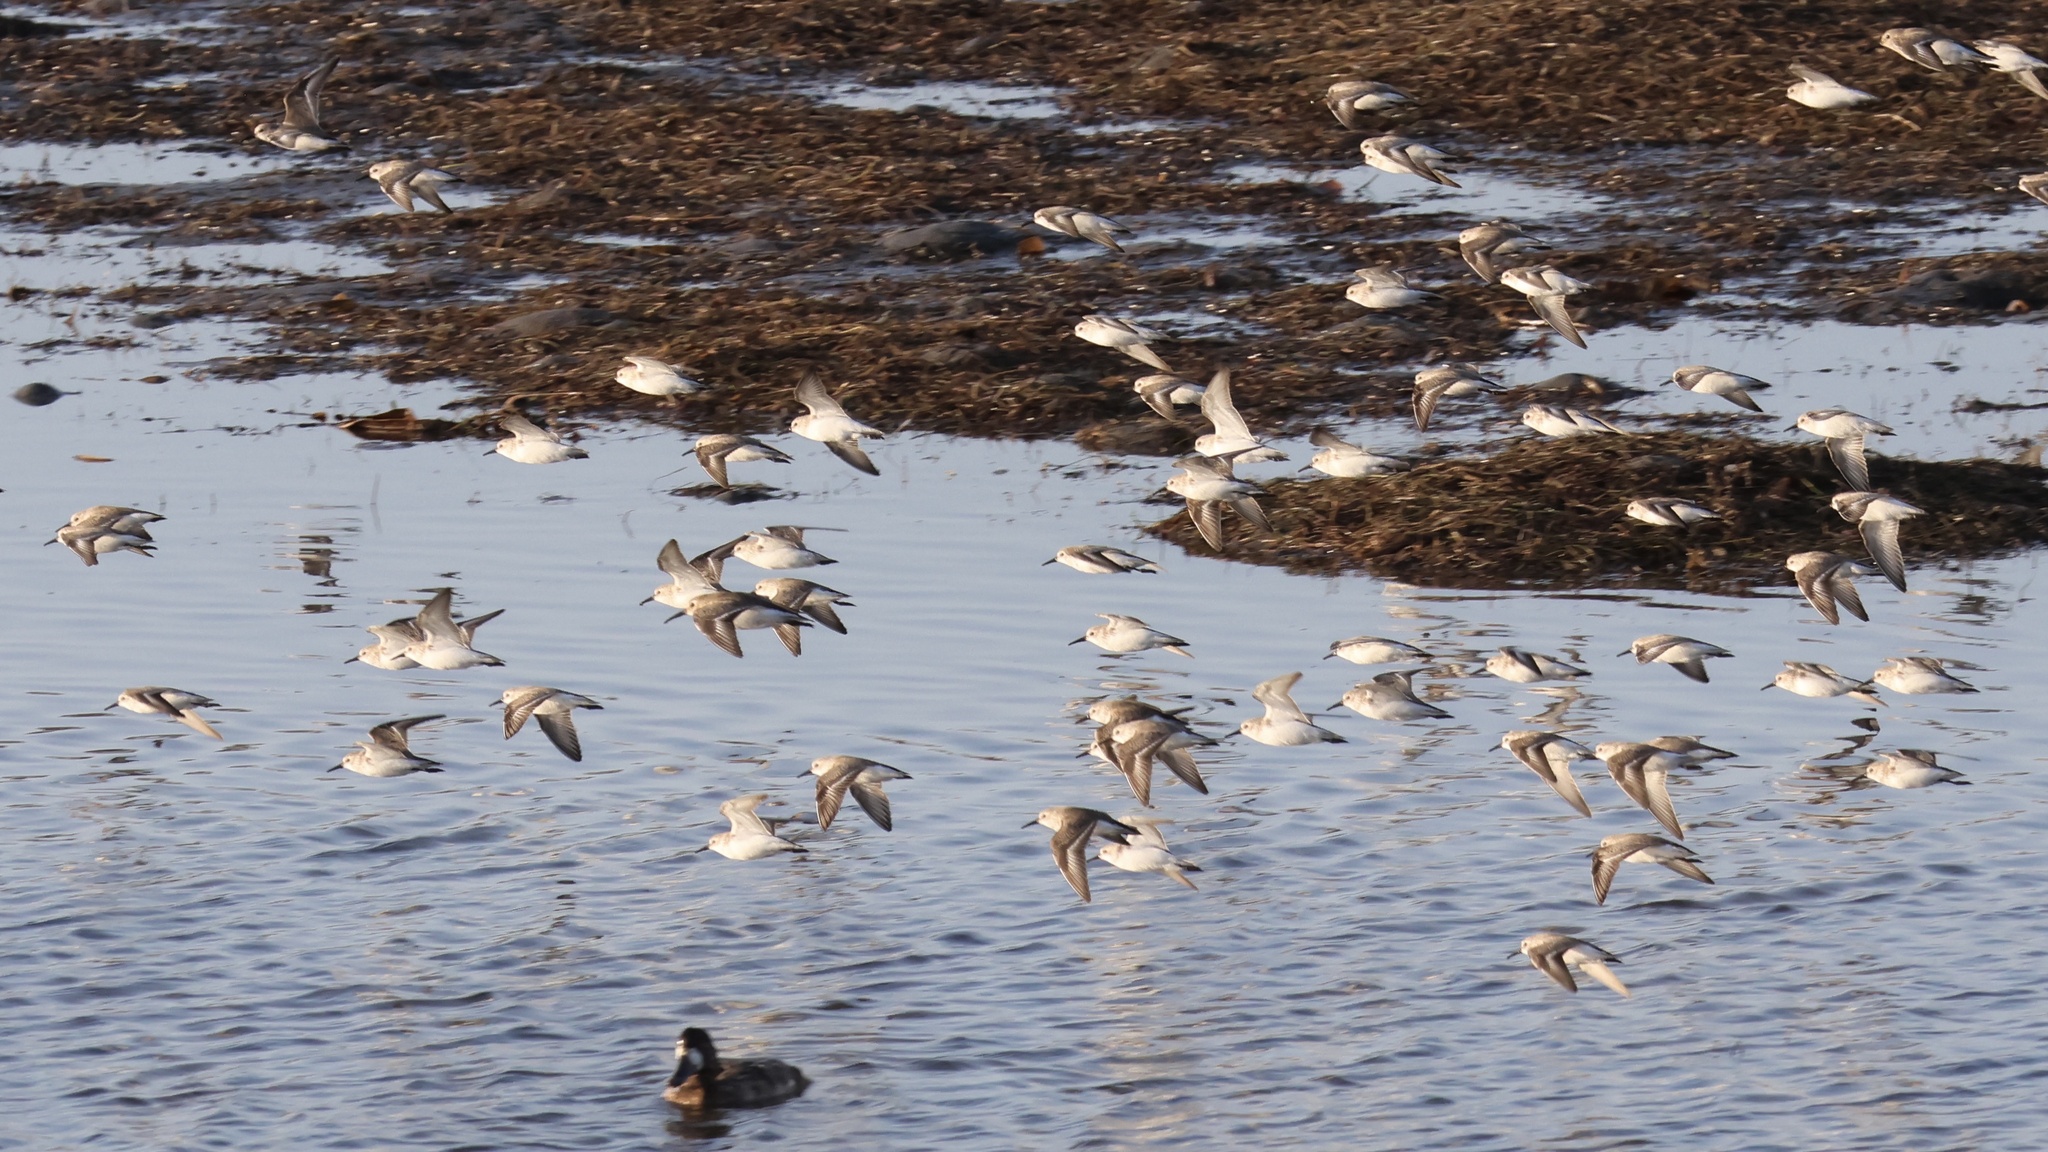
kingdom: Animalia
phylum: Chordata
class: Aves
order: Charadriiformes
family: Scolopacidae
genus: Calidris
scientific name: Calidris mauri
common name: Western sandpiper
